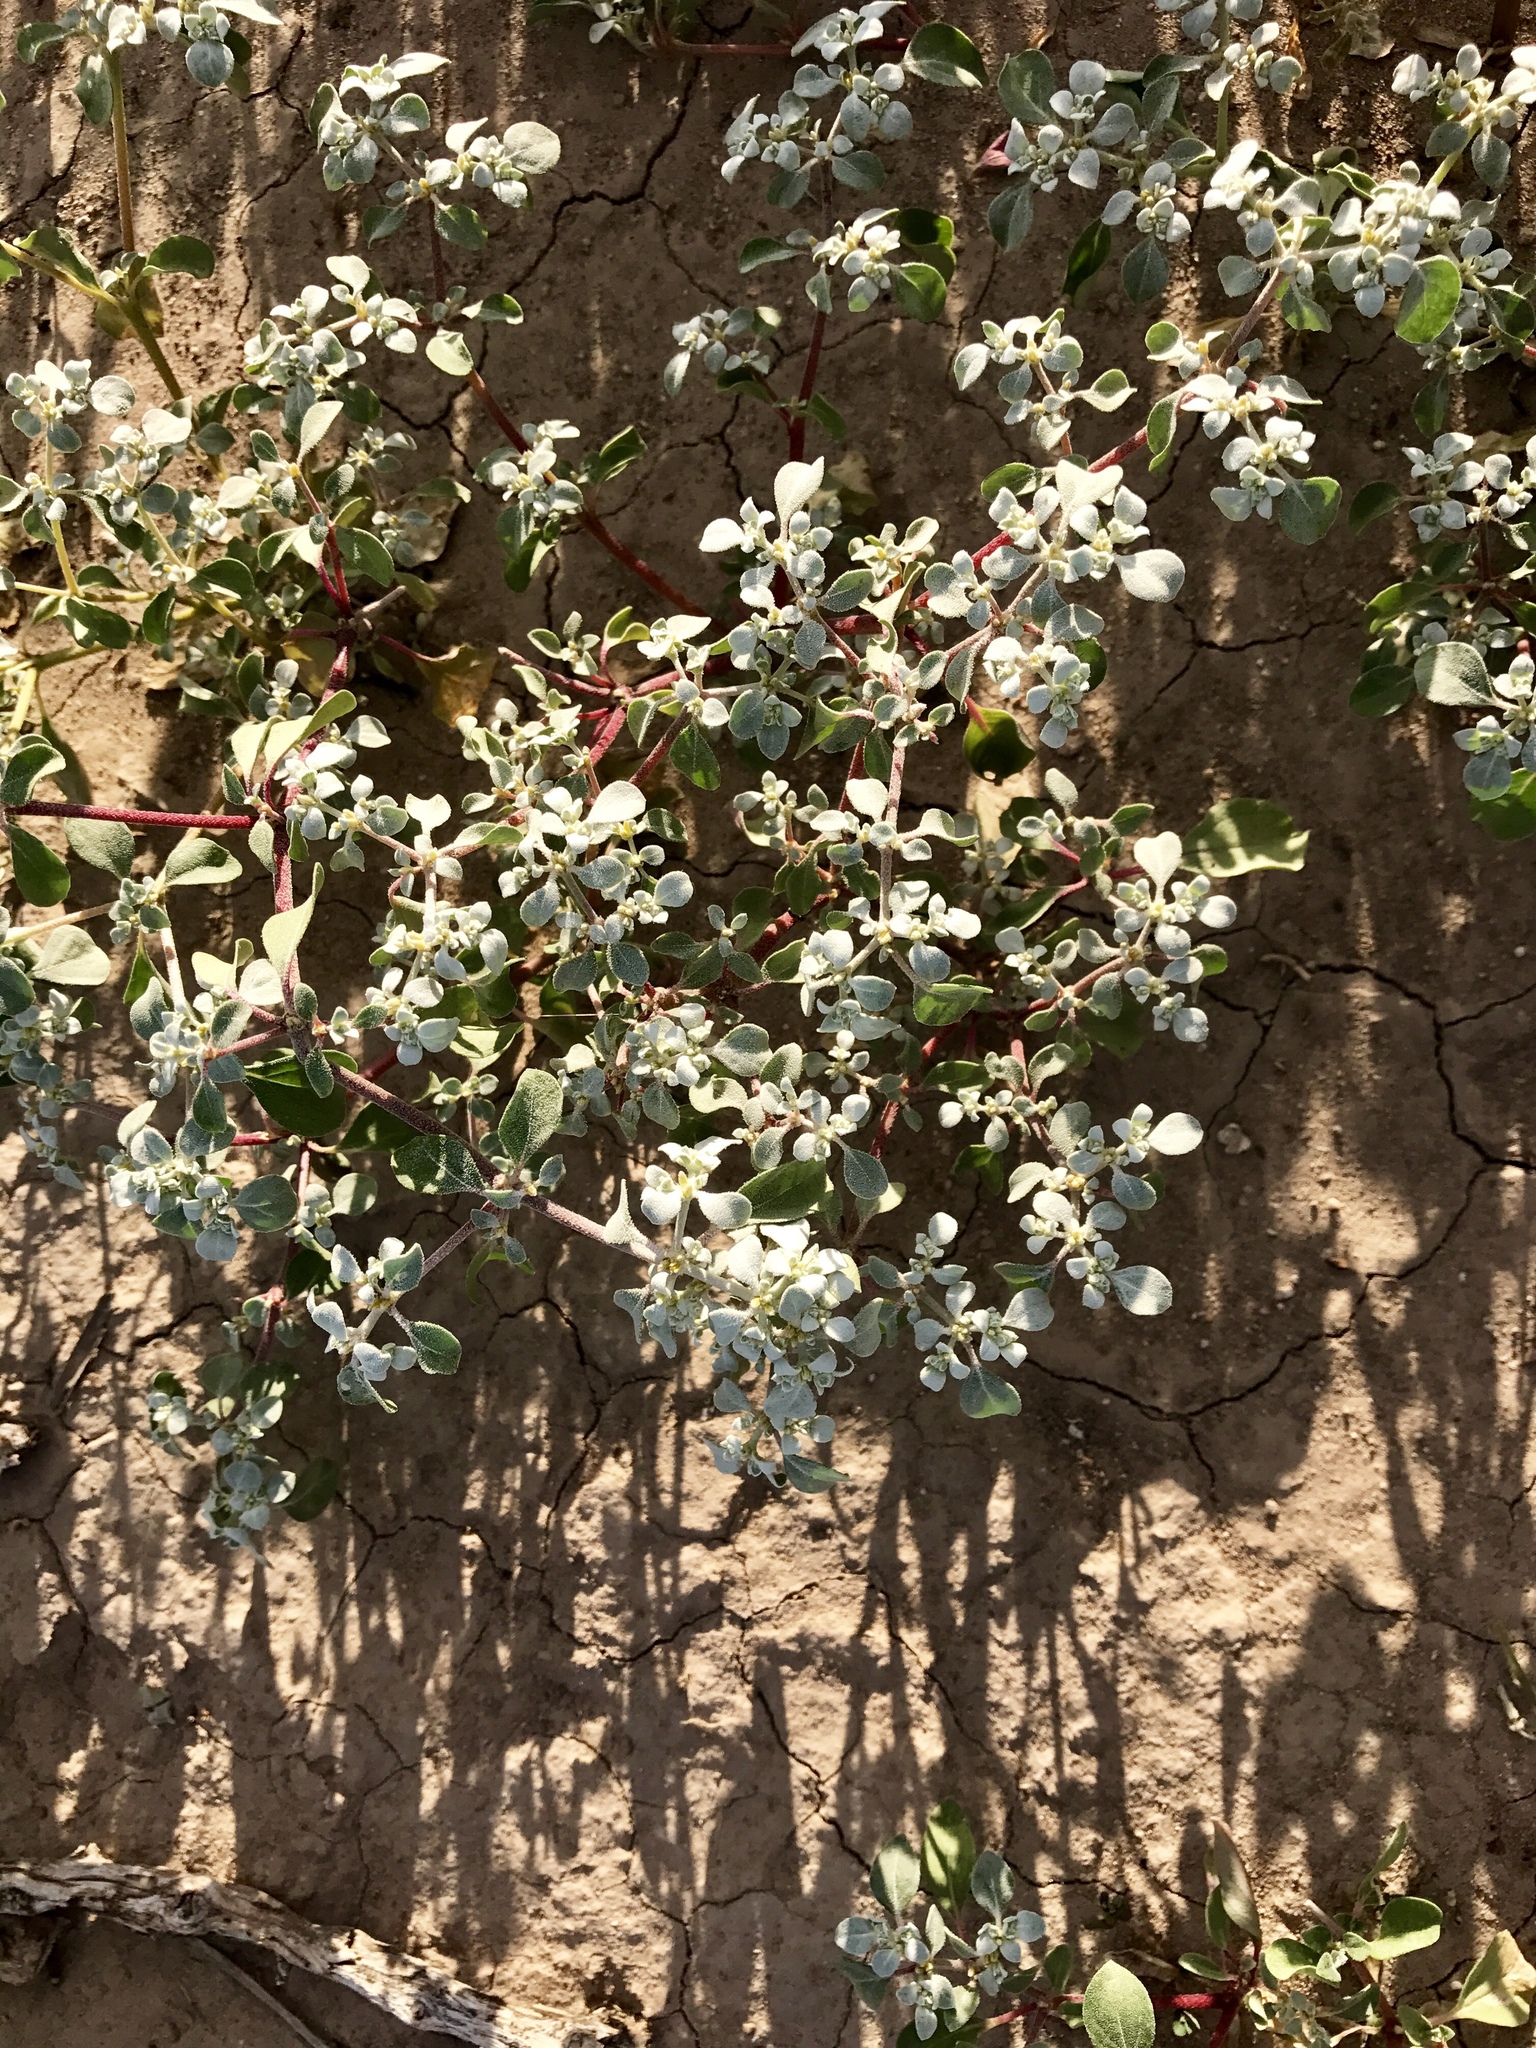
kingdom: Plantae
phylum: Tracheophyta
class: Magnoliopsida
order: Caryophyllales
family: Amaranthaceae
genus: Tidestromia
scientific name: Tidestromia lanuginosa
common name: Woolly tidestromia
